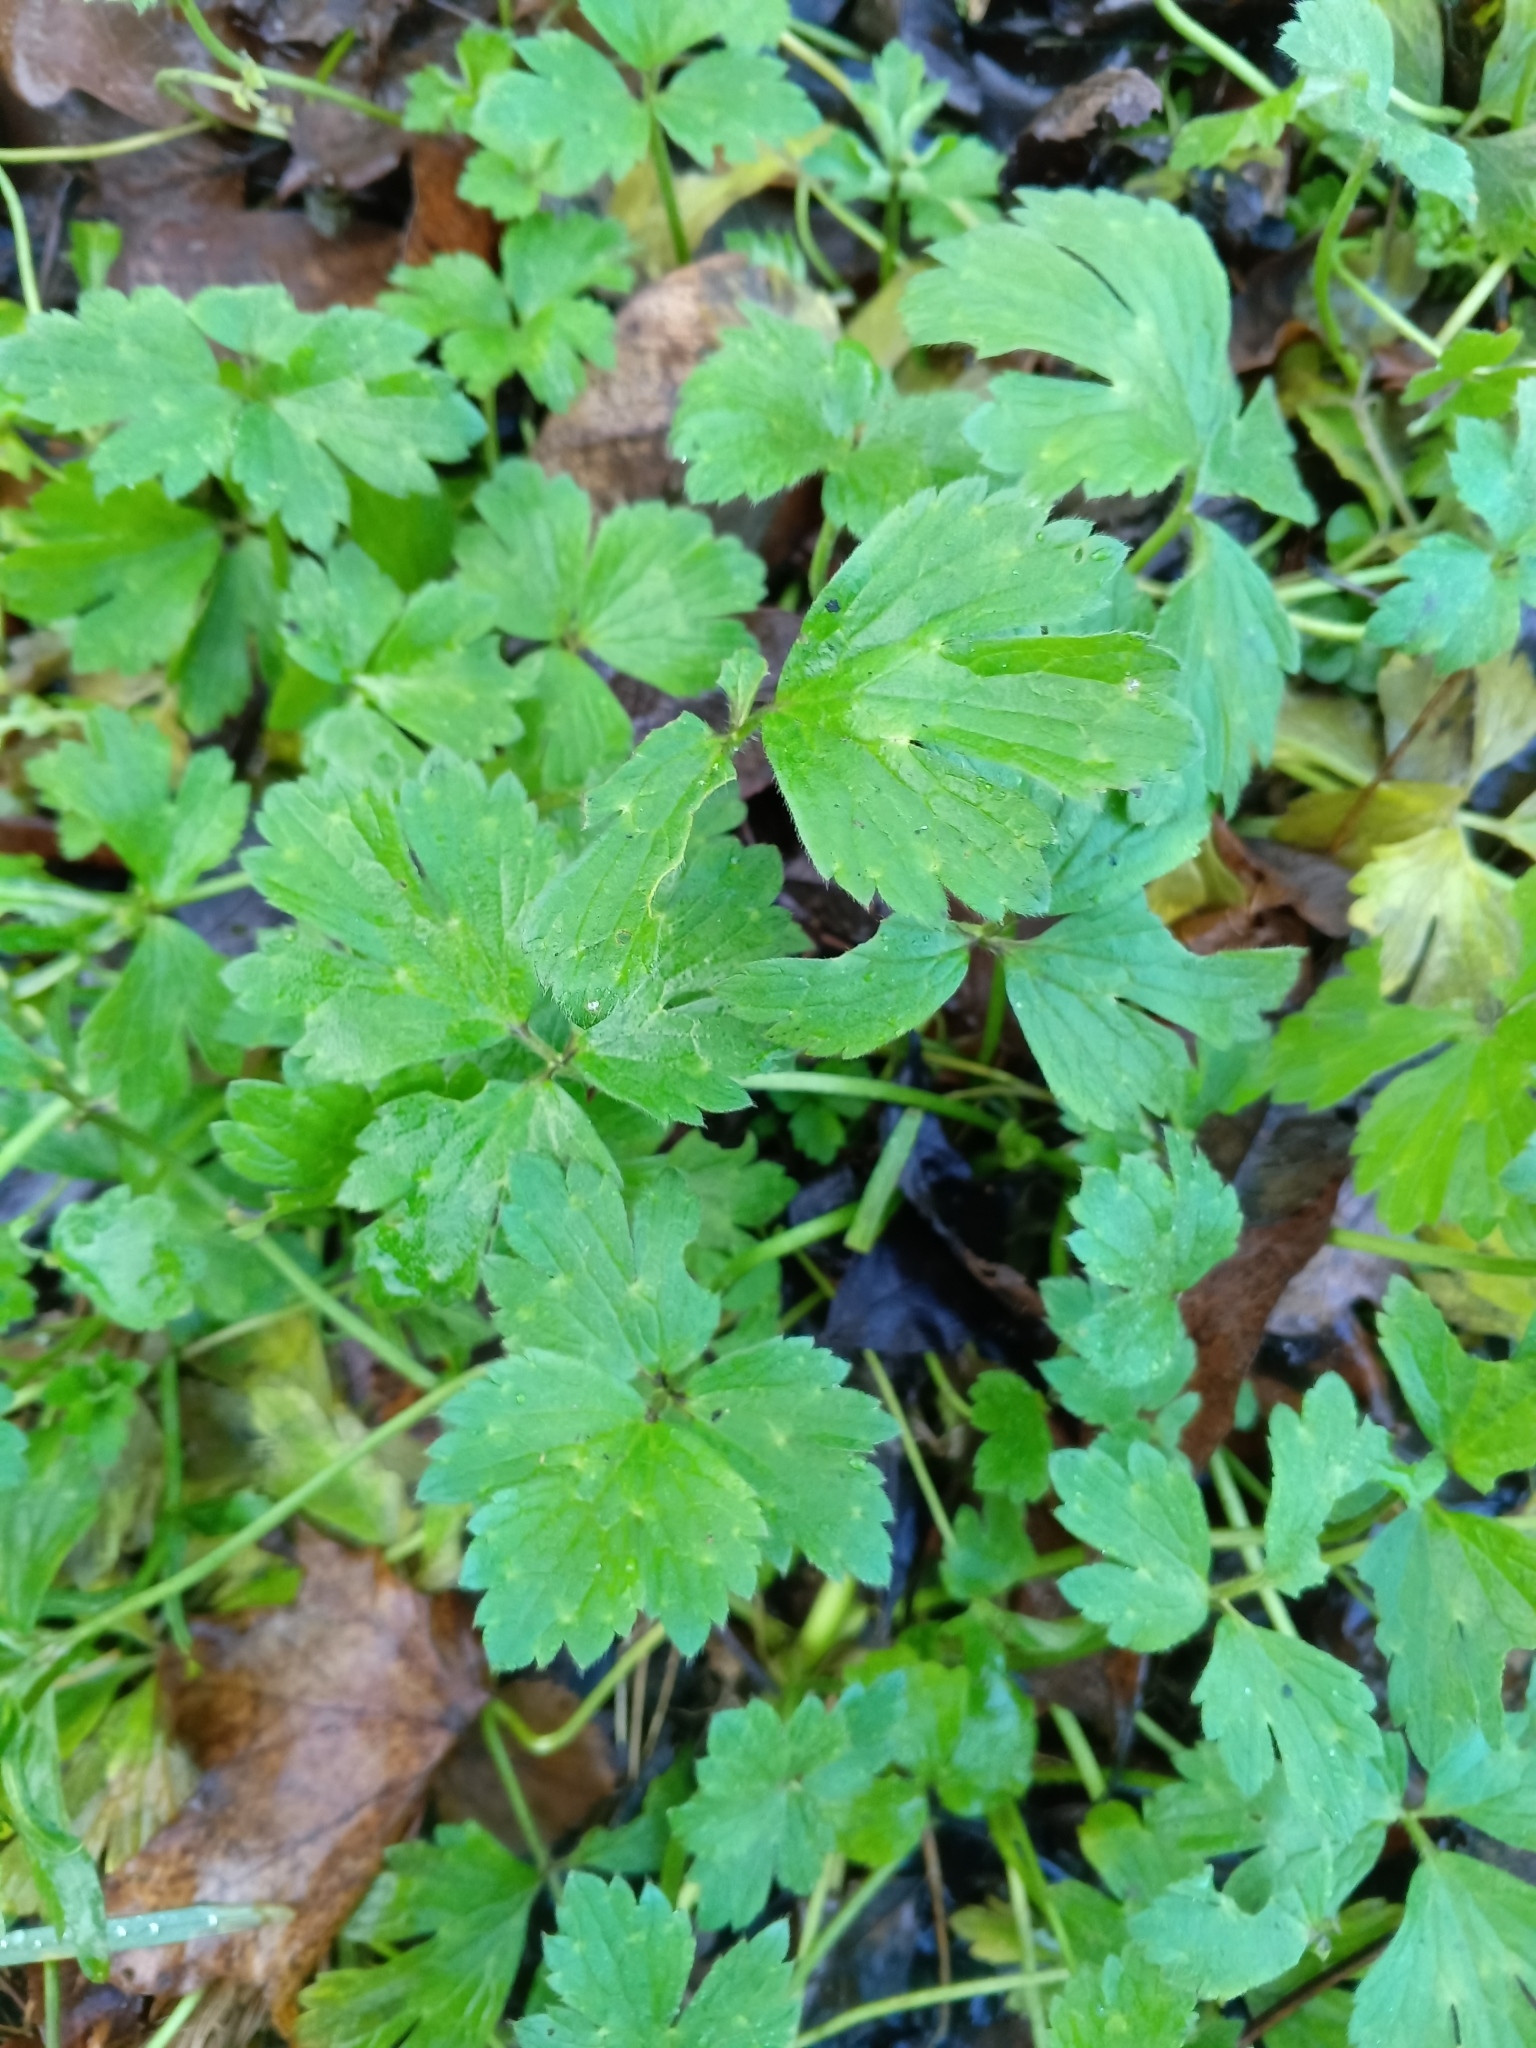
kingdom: Plantae
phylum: Tracheophyta
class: Magnoliopsida
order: Ranunculales
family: Ranunculaceae
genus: Ranunculus
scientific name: Ranunculus repens
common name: Creeping buttercup
